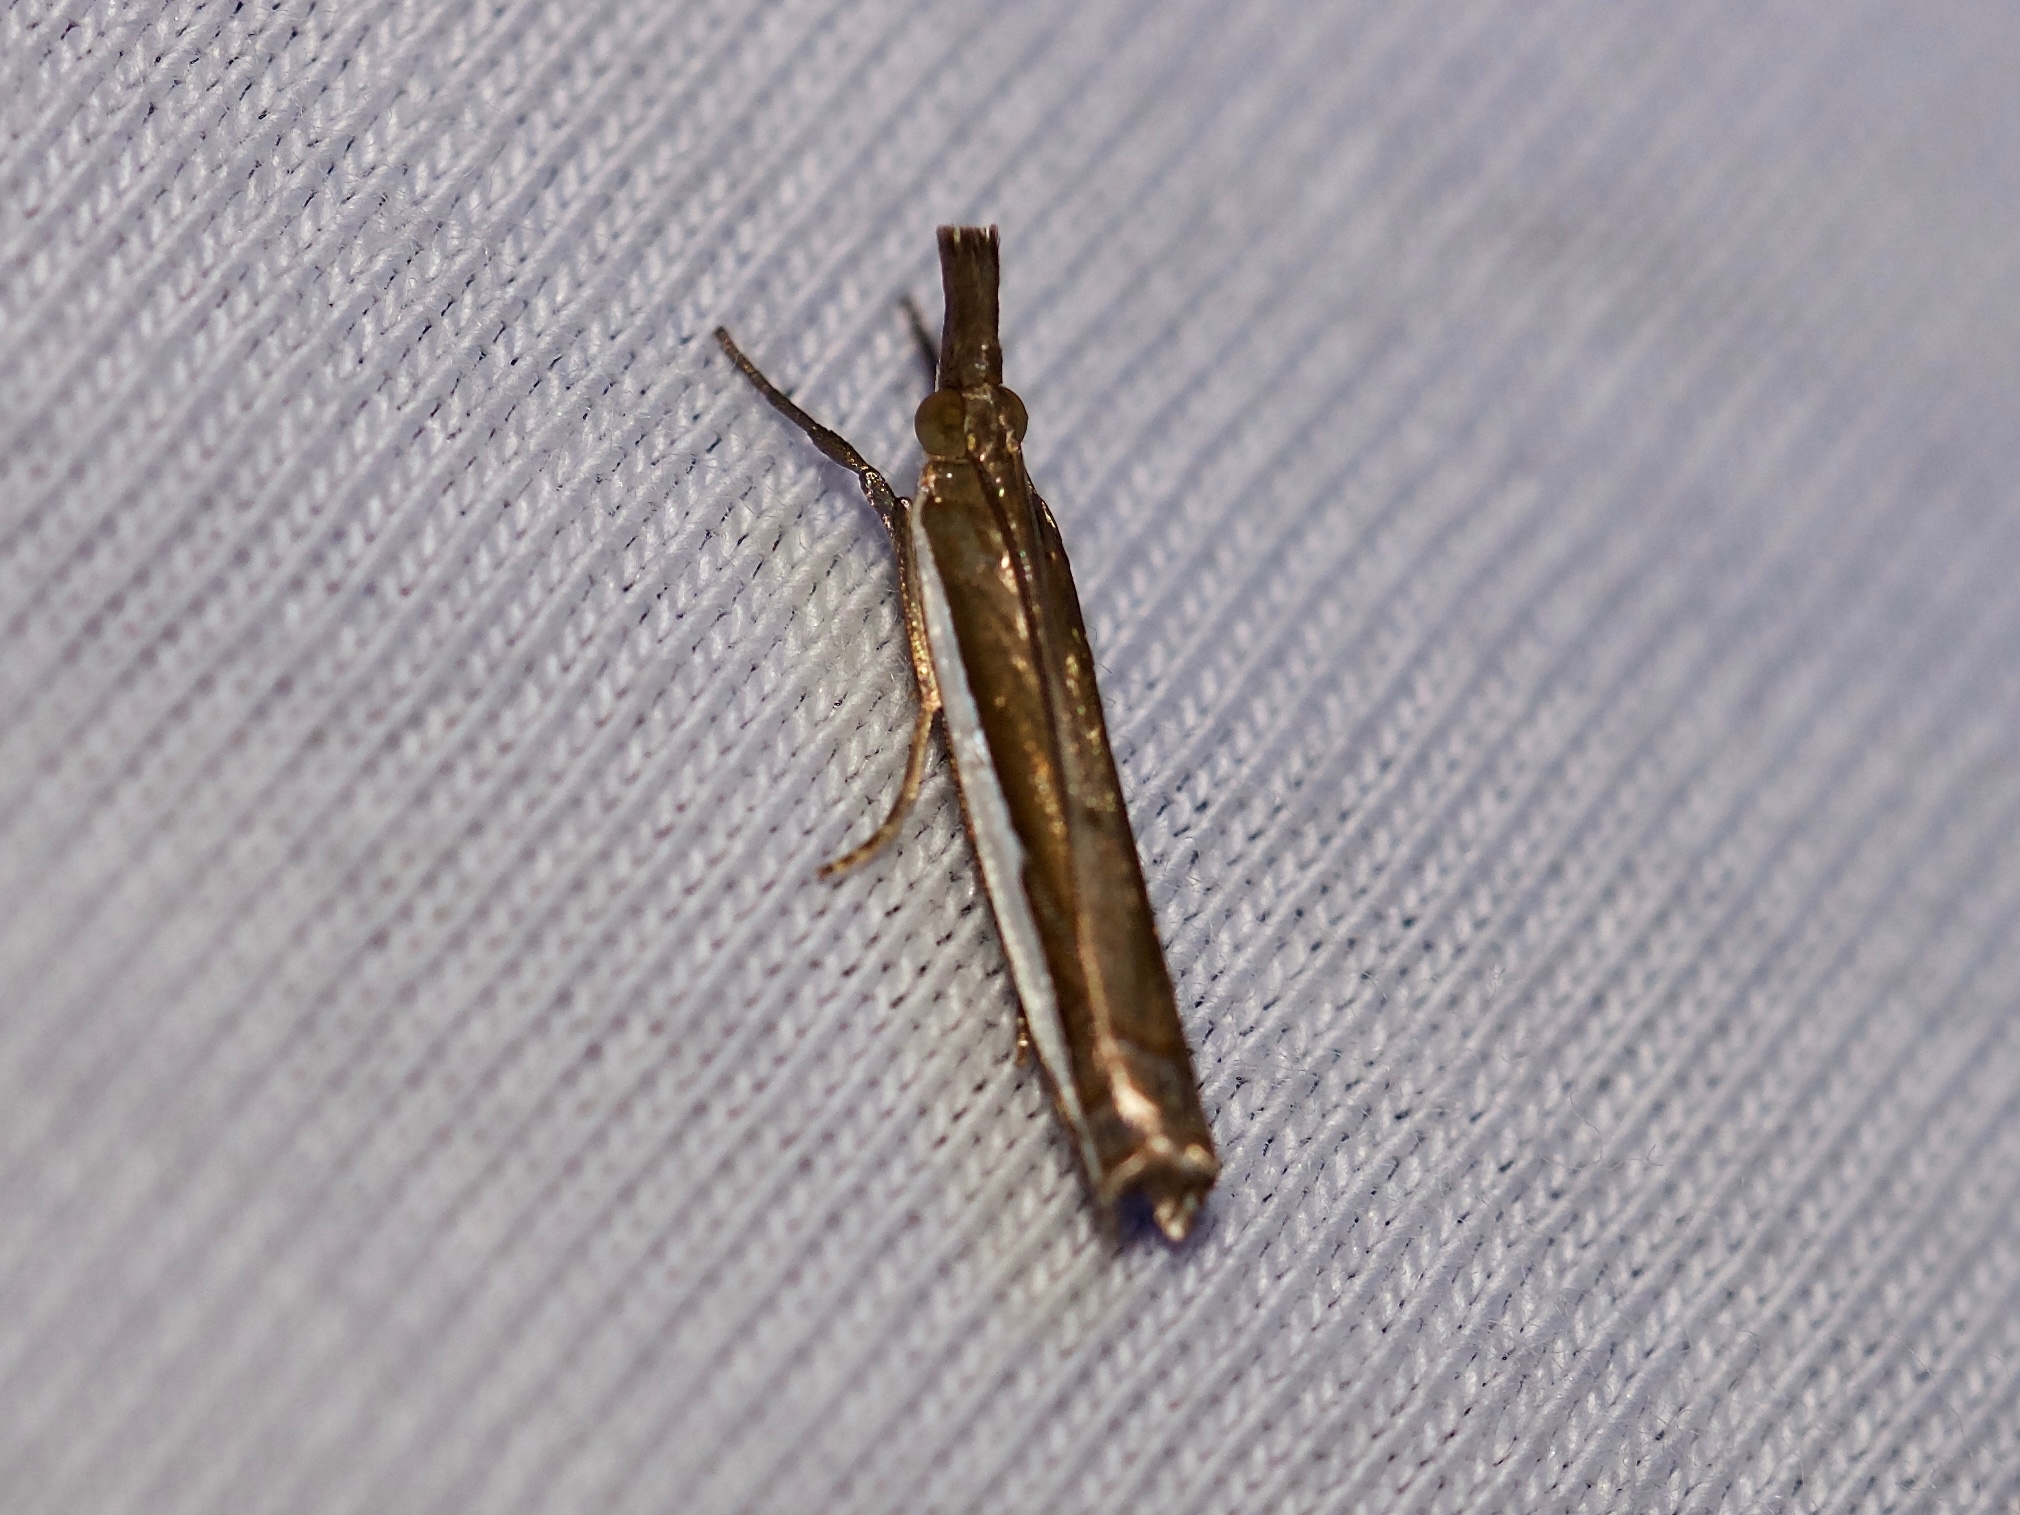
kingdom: Animalia
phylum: Arthropoda
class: Insecta
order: Lepidoptera
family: Crambidae
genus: Crambus
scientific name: Crambus quinquareatus
